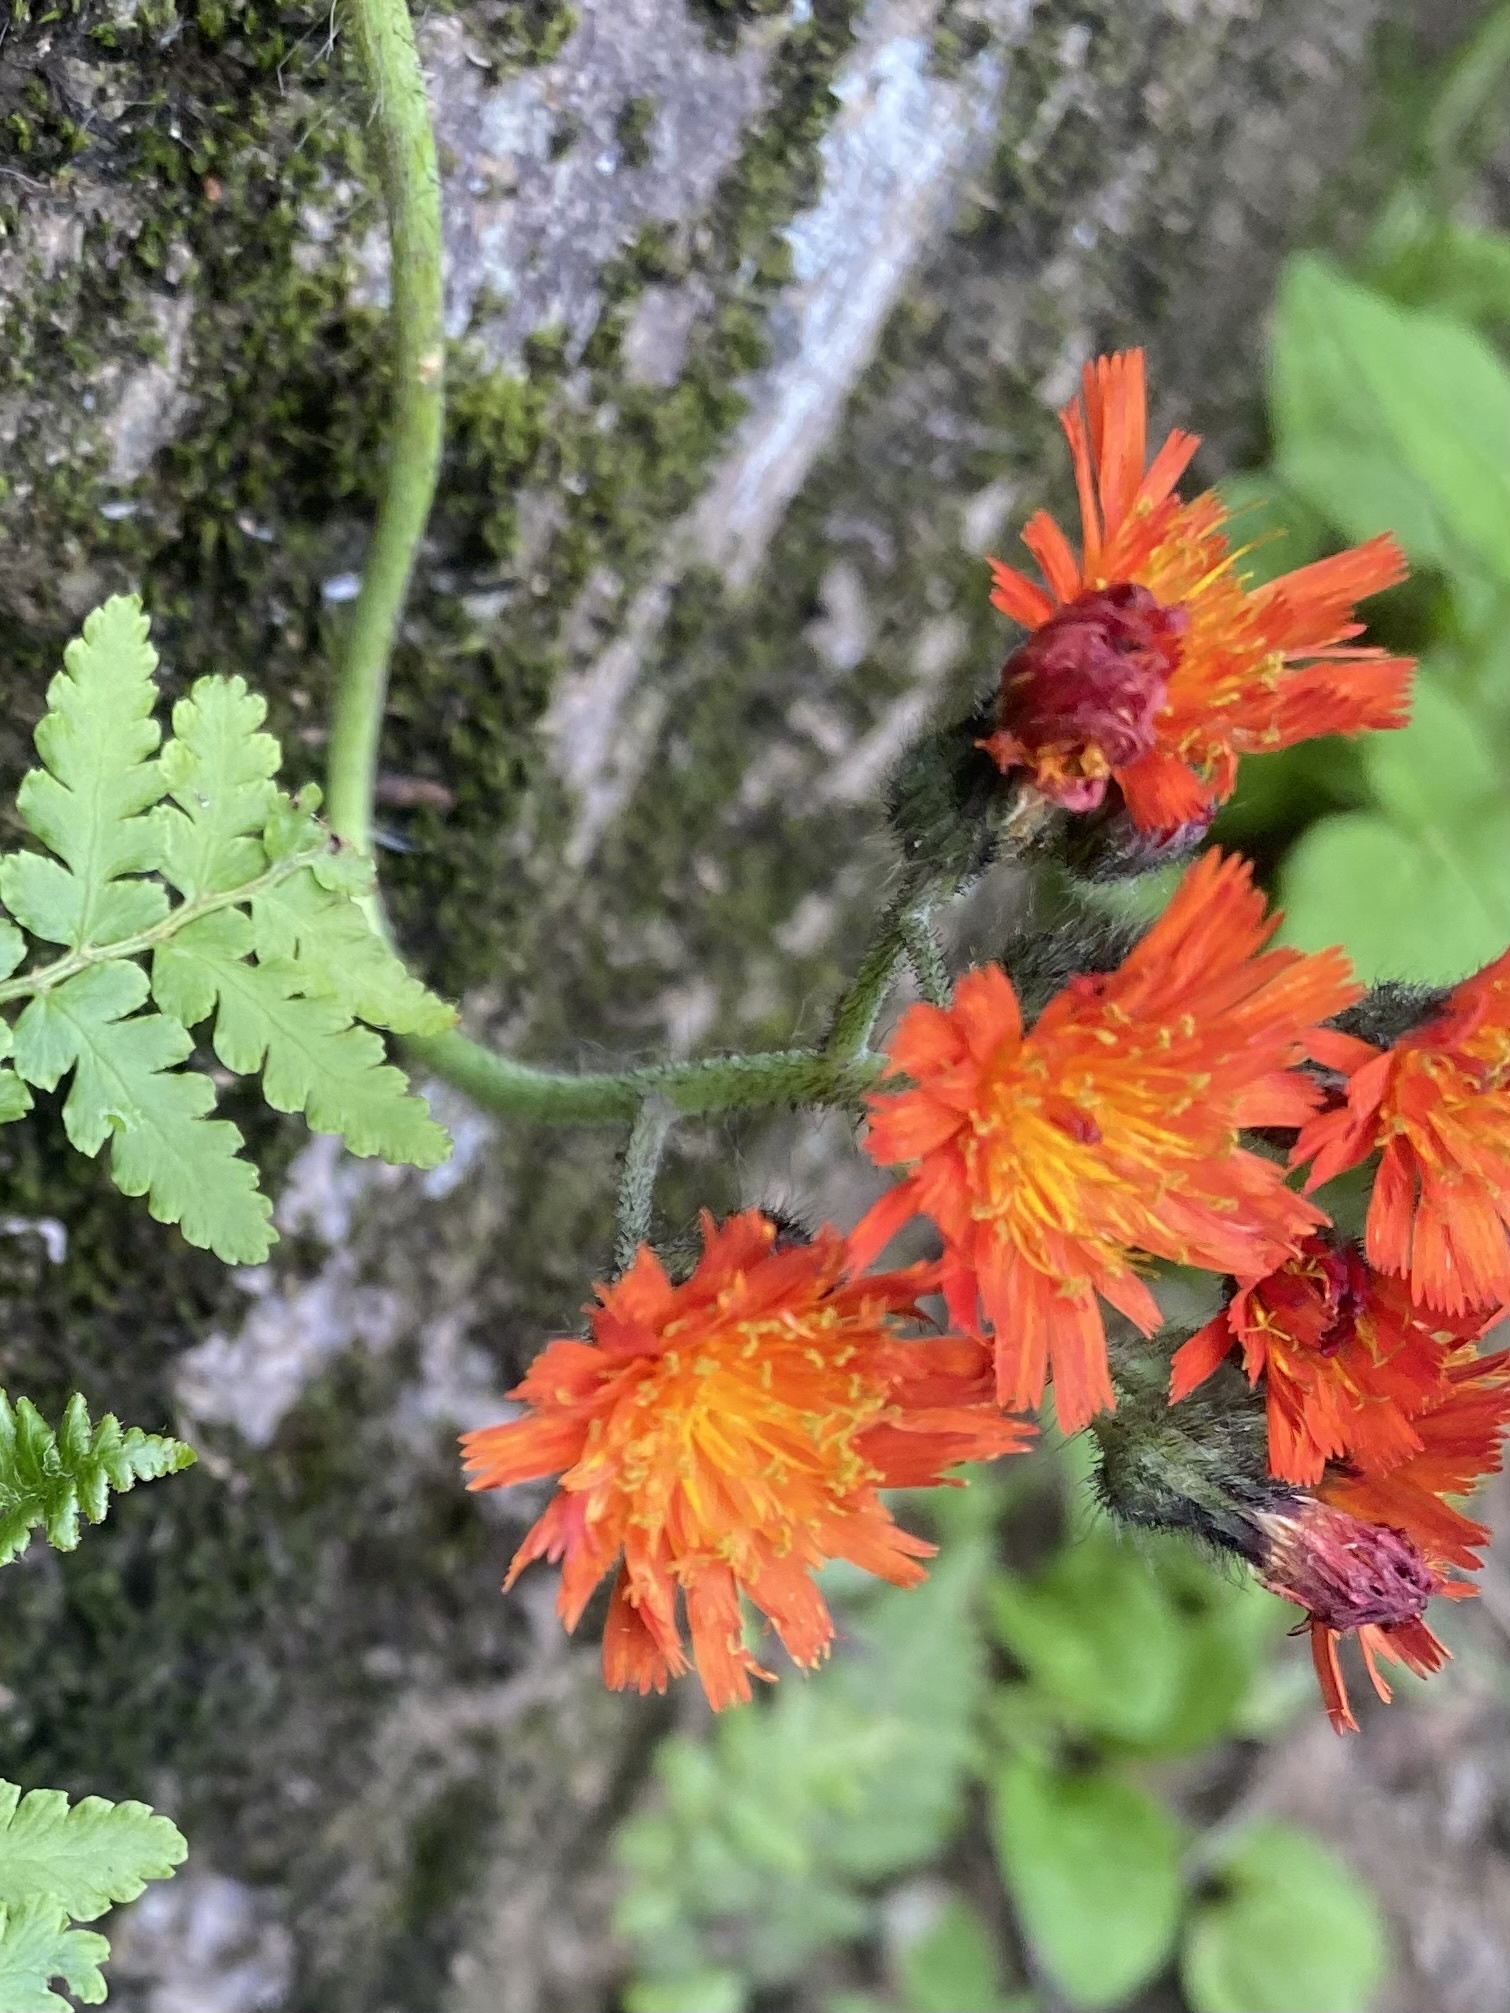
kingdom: Plantae
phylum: Tracheophyta
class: Magnoliopsida
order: Asterales
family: Asteraceae
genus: Pilosella
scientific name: Pilosella aurantiaca
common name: Fox-and-cubs
